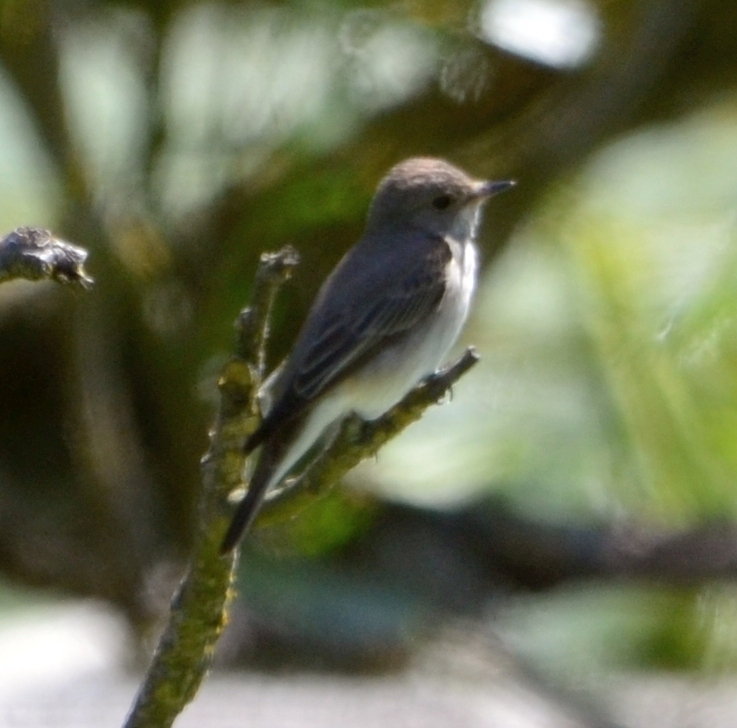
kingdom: Animalia
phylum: Chordata
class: Aves
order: Passeriformes
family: Muscicapidae
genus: Muscicapa
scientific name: Muscicapa striata
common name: Spotted flycatcher
